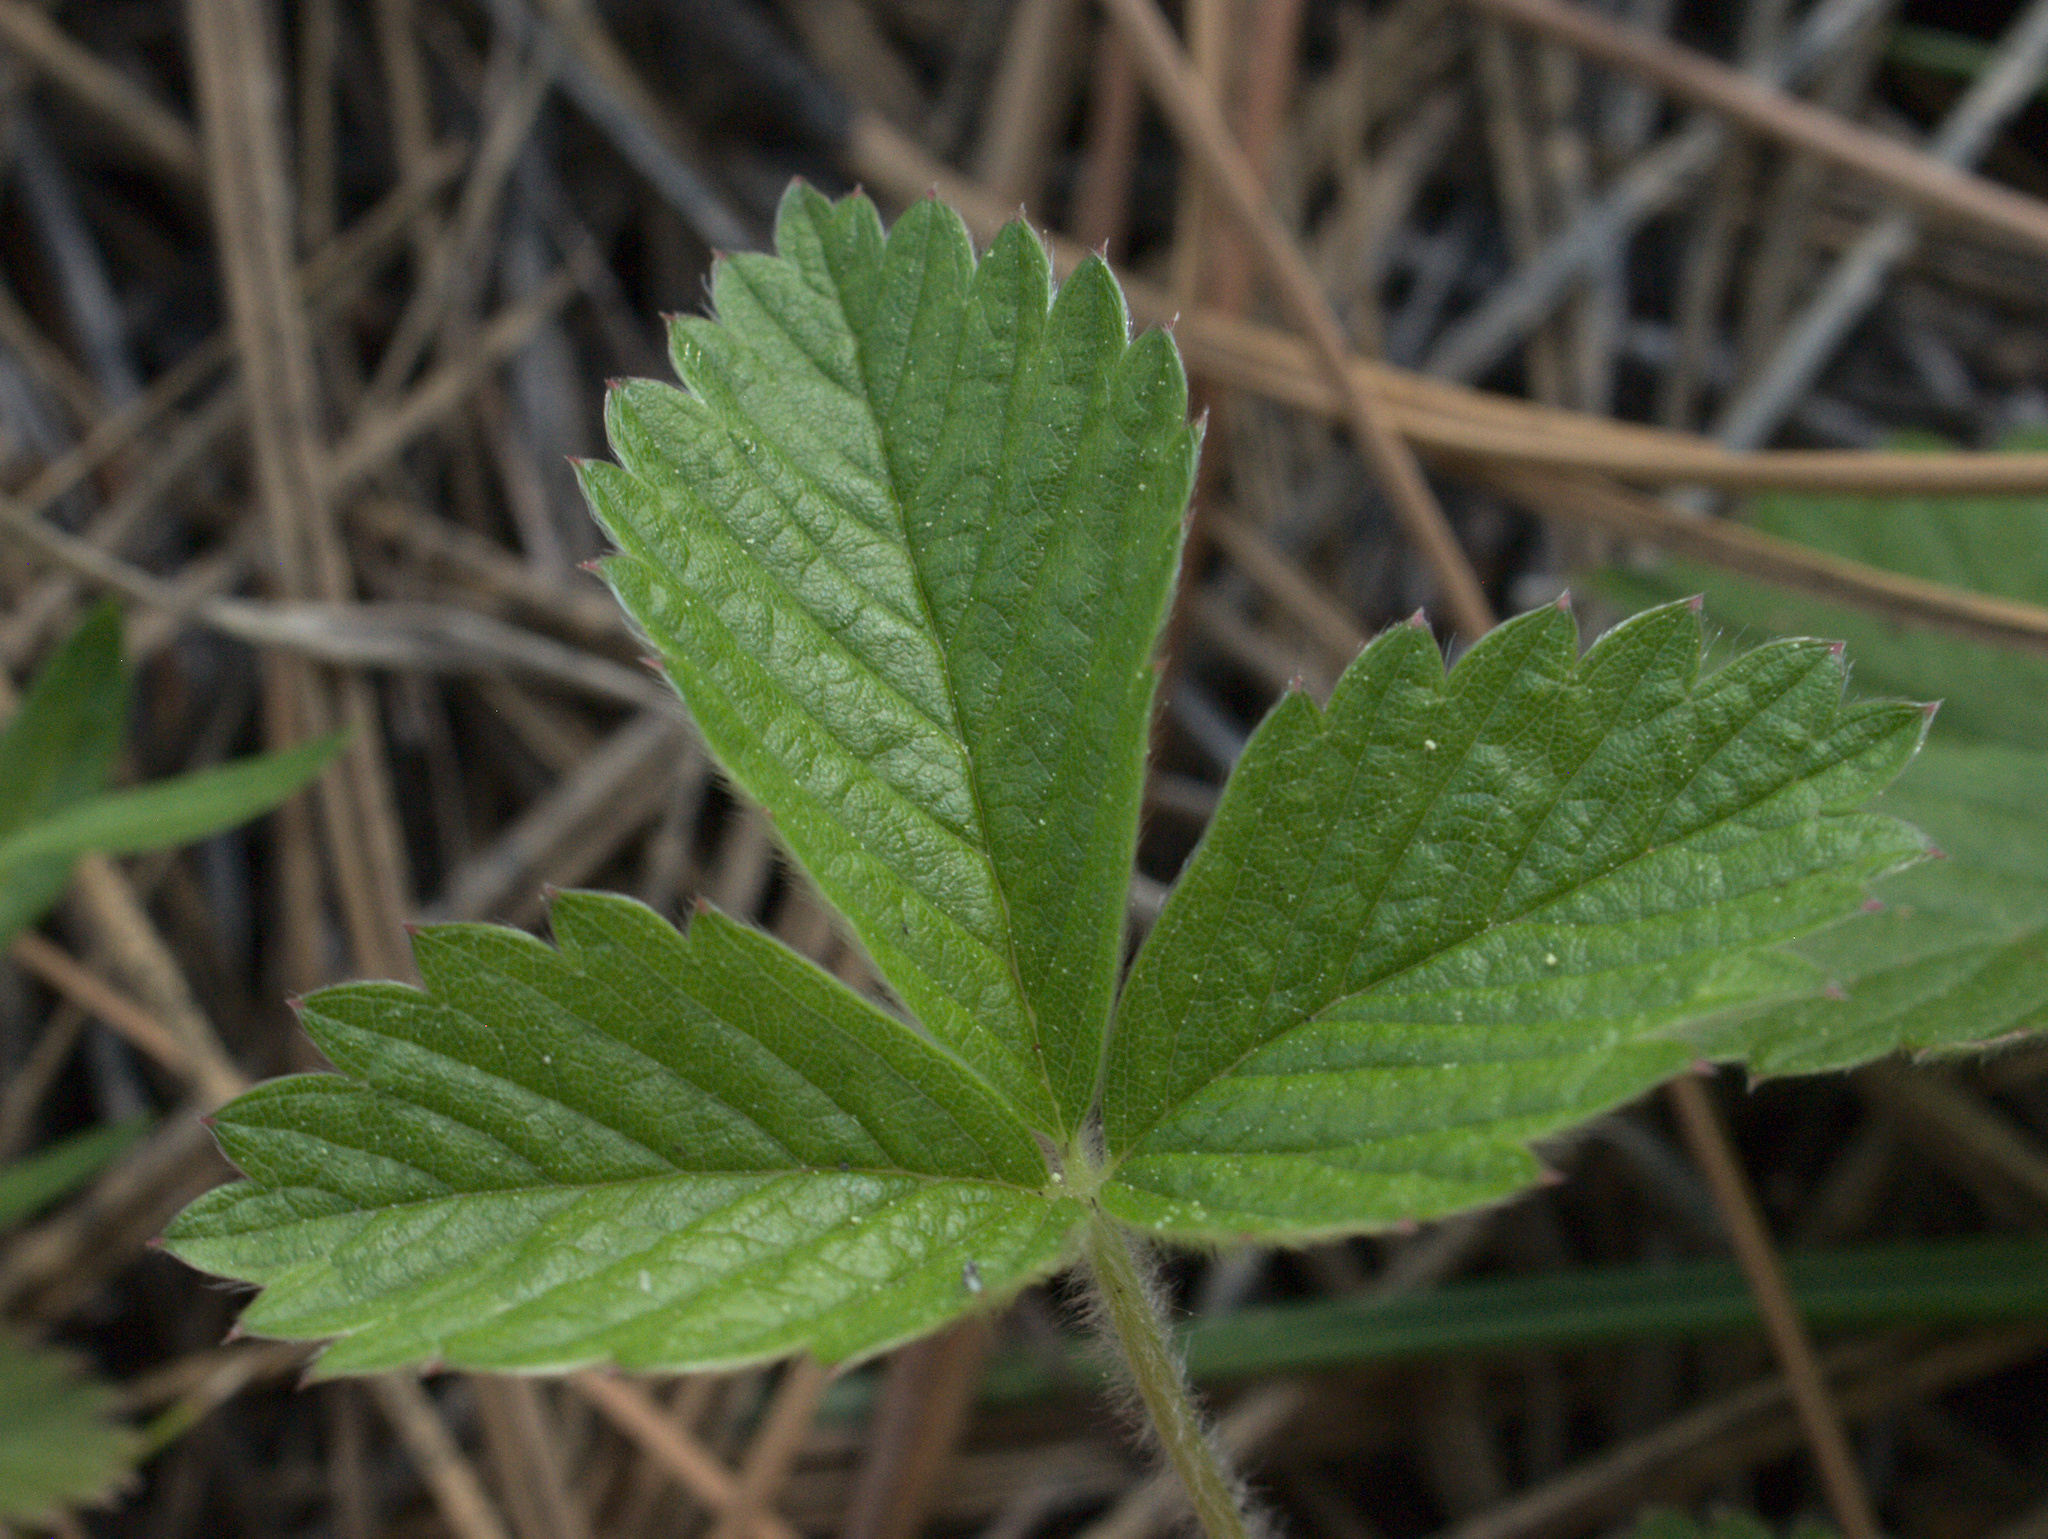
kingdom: Plantae
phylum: Tracheophyta
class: Magnoliopsida
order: Rosales
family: Rosaceae
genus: Fragaria
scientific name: Fragaria vesca
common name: Wild strawberry
